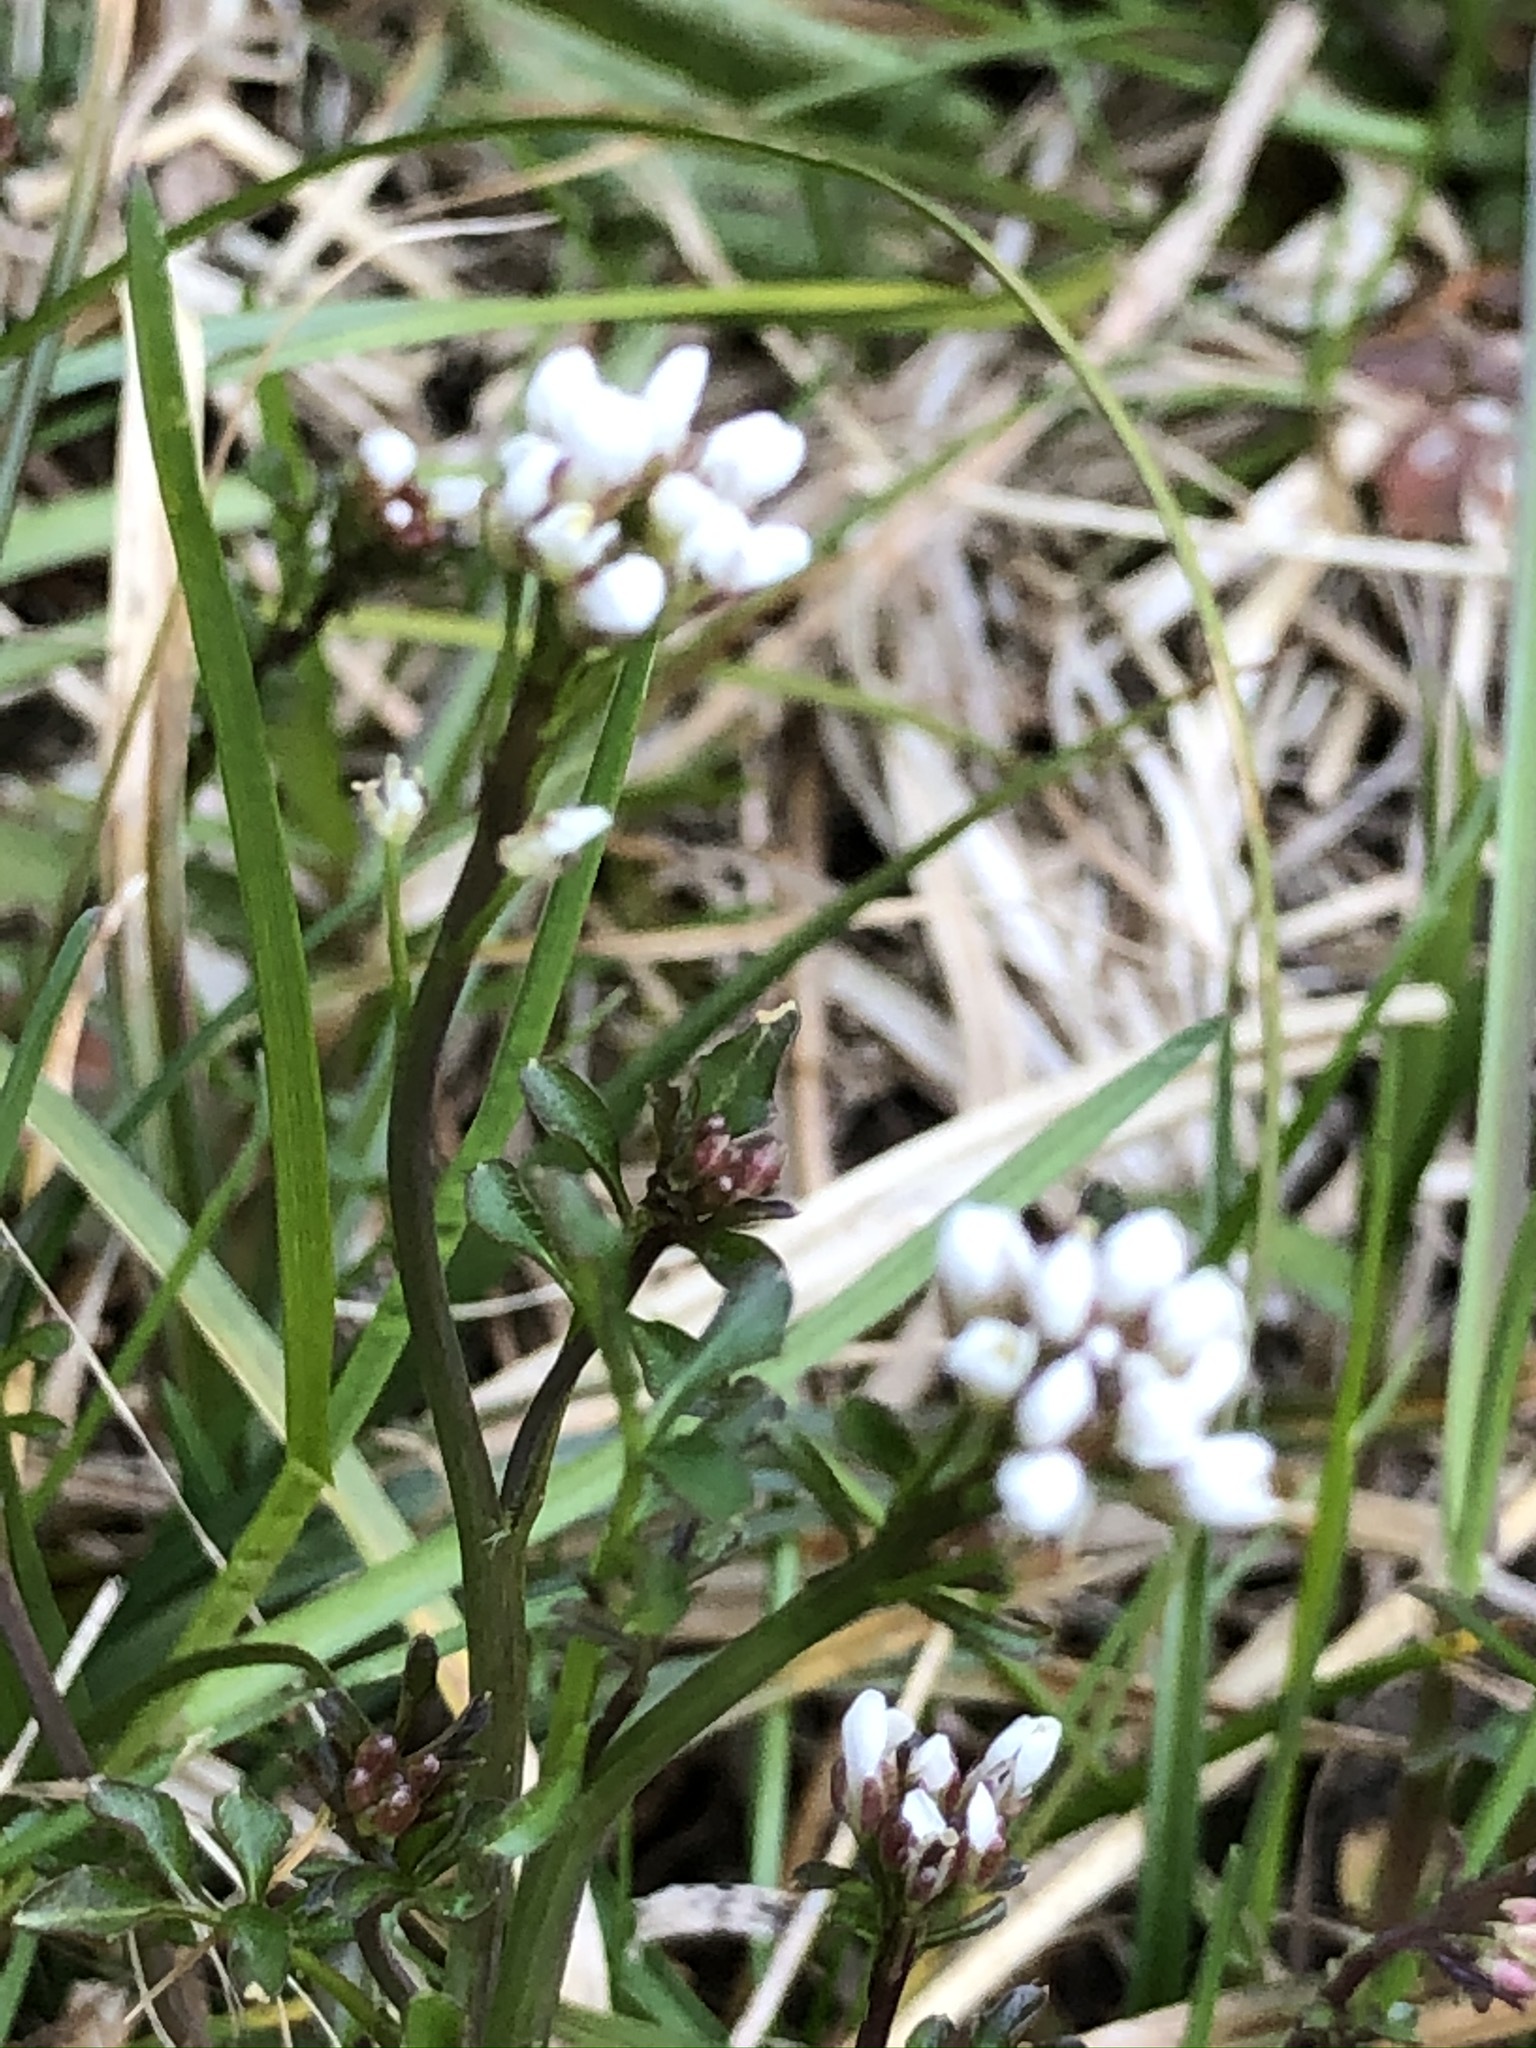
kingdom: Plantae
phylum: Tracheophyta
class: Magnoliopsida
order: Brassicales
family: Brassicaceae
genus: Cardamine
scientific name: Cardamine hirsuta
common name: Hairy bittercress
